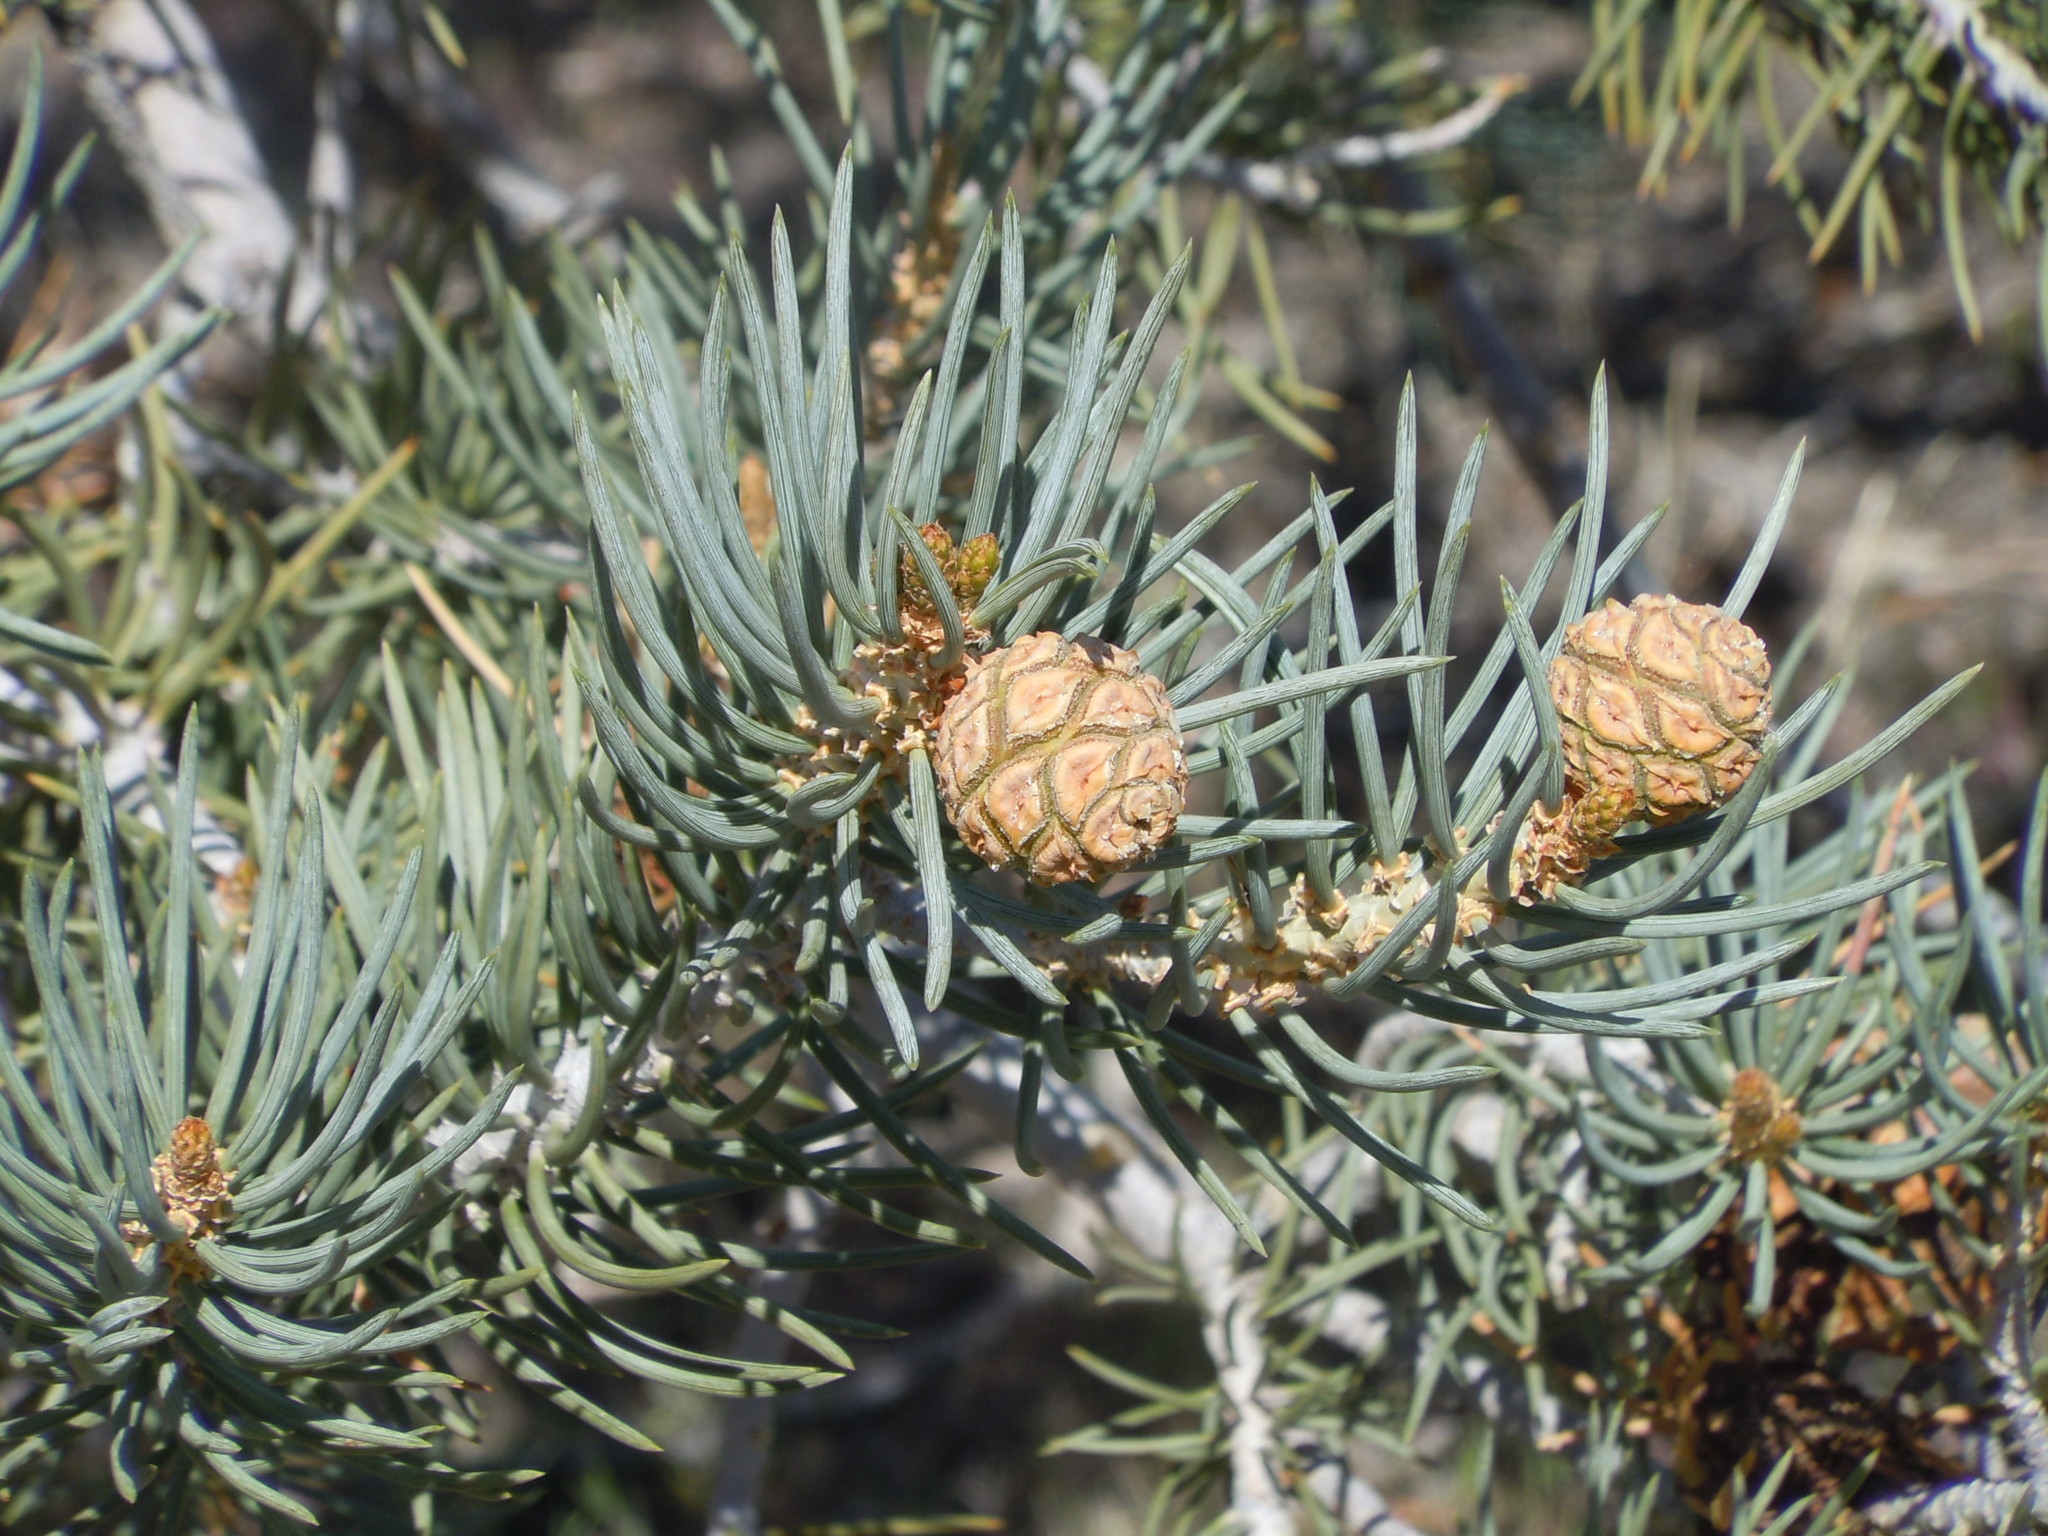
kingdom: Plantae
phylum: Tracheophyta
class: Pinopsida
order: Pinales
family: Pinaceae
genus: Pinus
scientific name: Pinus monophylla
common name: One-leaved nut pine
